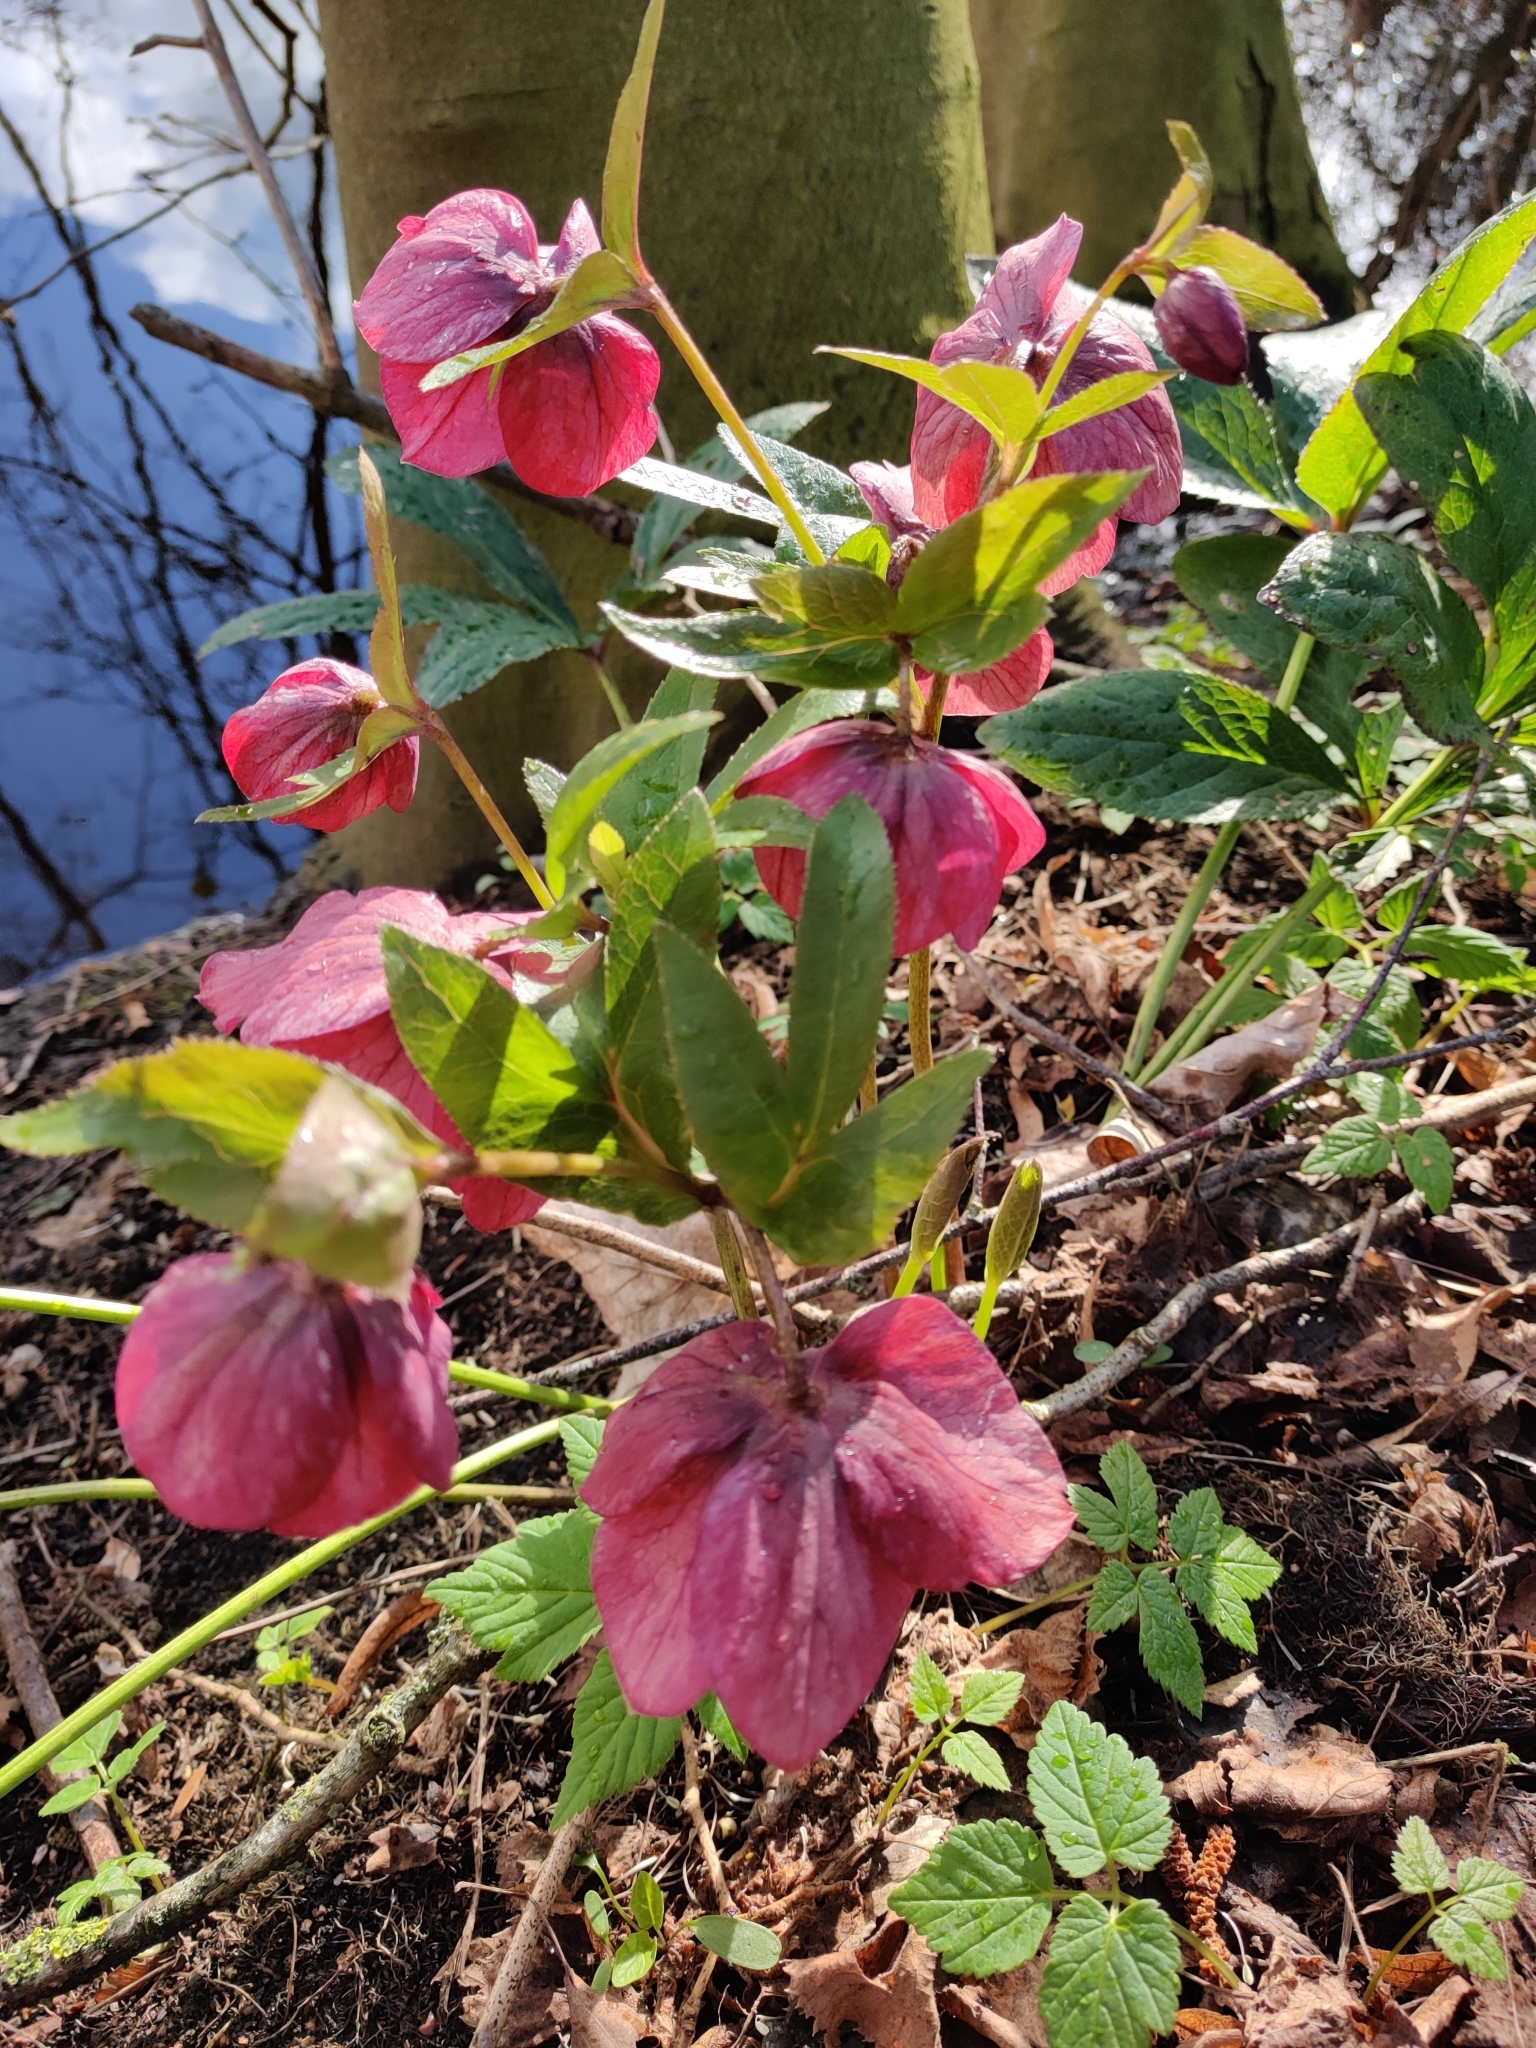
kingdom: Plantae
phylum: Tracheophyta
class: Magnoliopsida
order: Ranunculales
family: Ranunculaceae
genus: Helleborus
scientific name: Helleborus hybridus
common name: Hybrid lenten-rose
